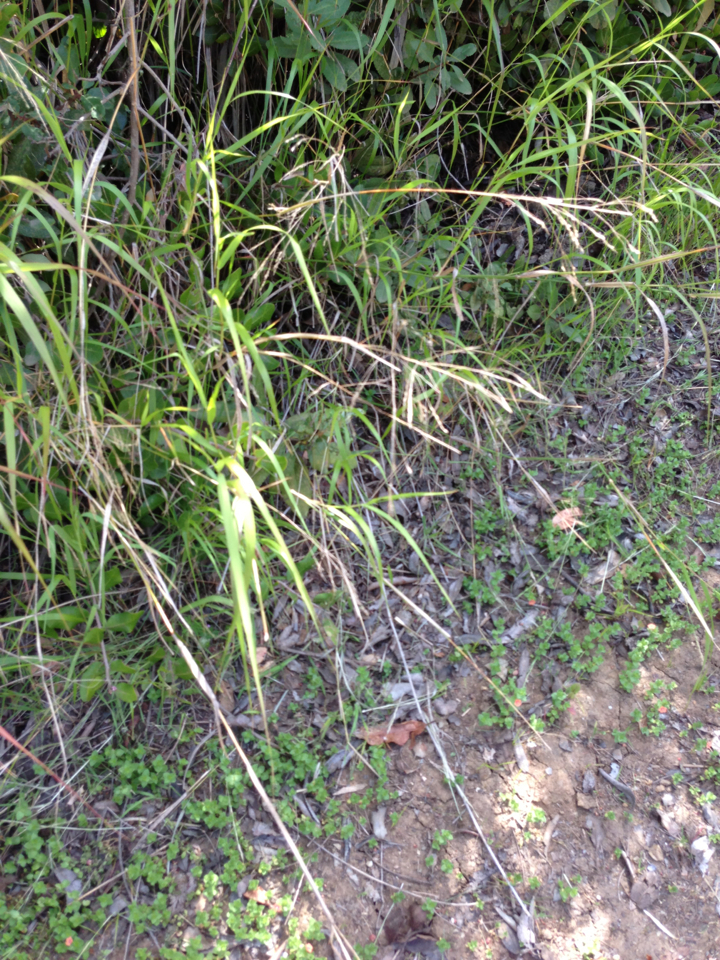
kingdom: Plantae
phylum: Tracheophyta
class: Liliopsida
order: Poales
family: Poaceae
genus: Oloptum
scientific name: Oloptum miliaceum
